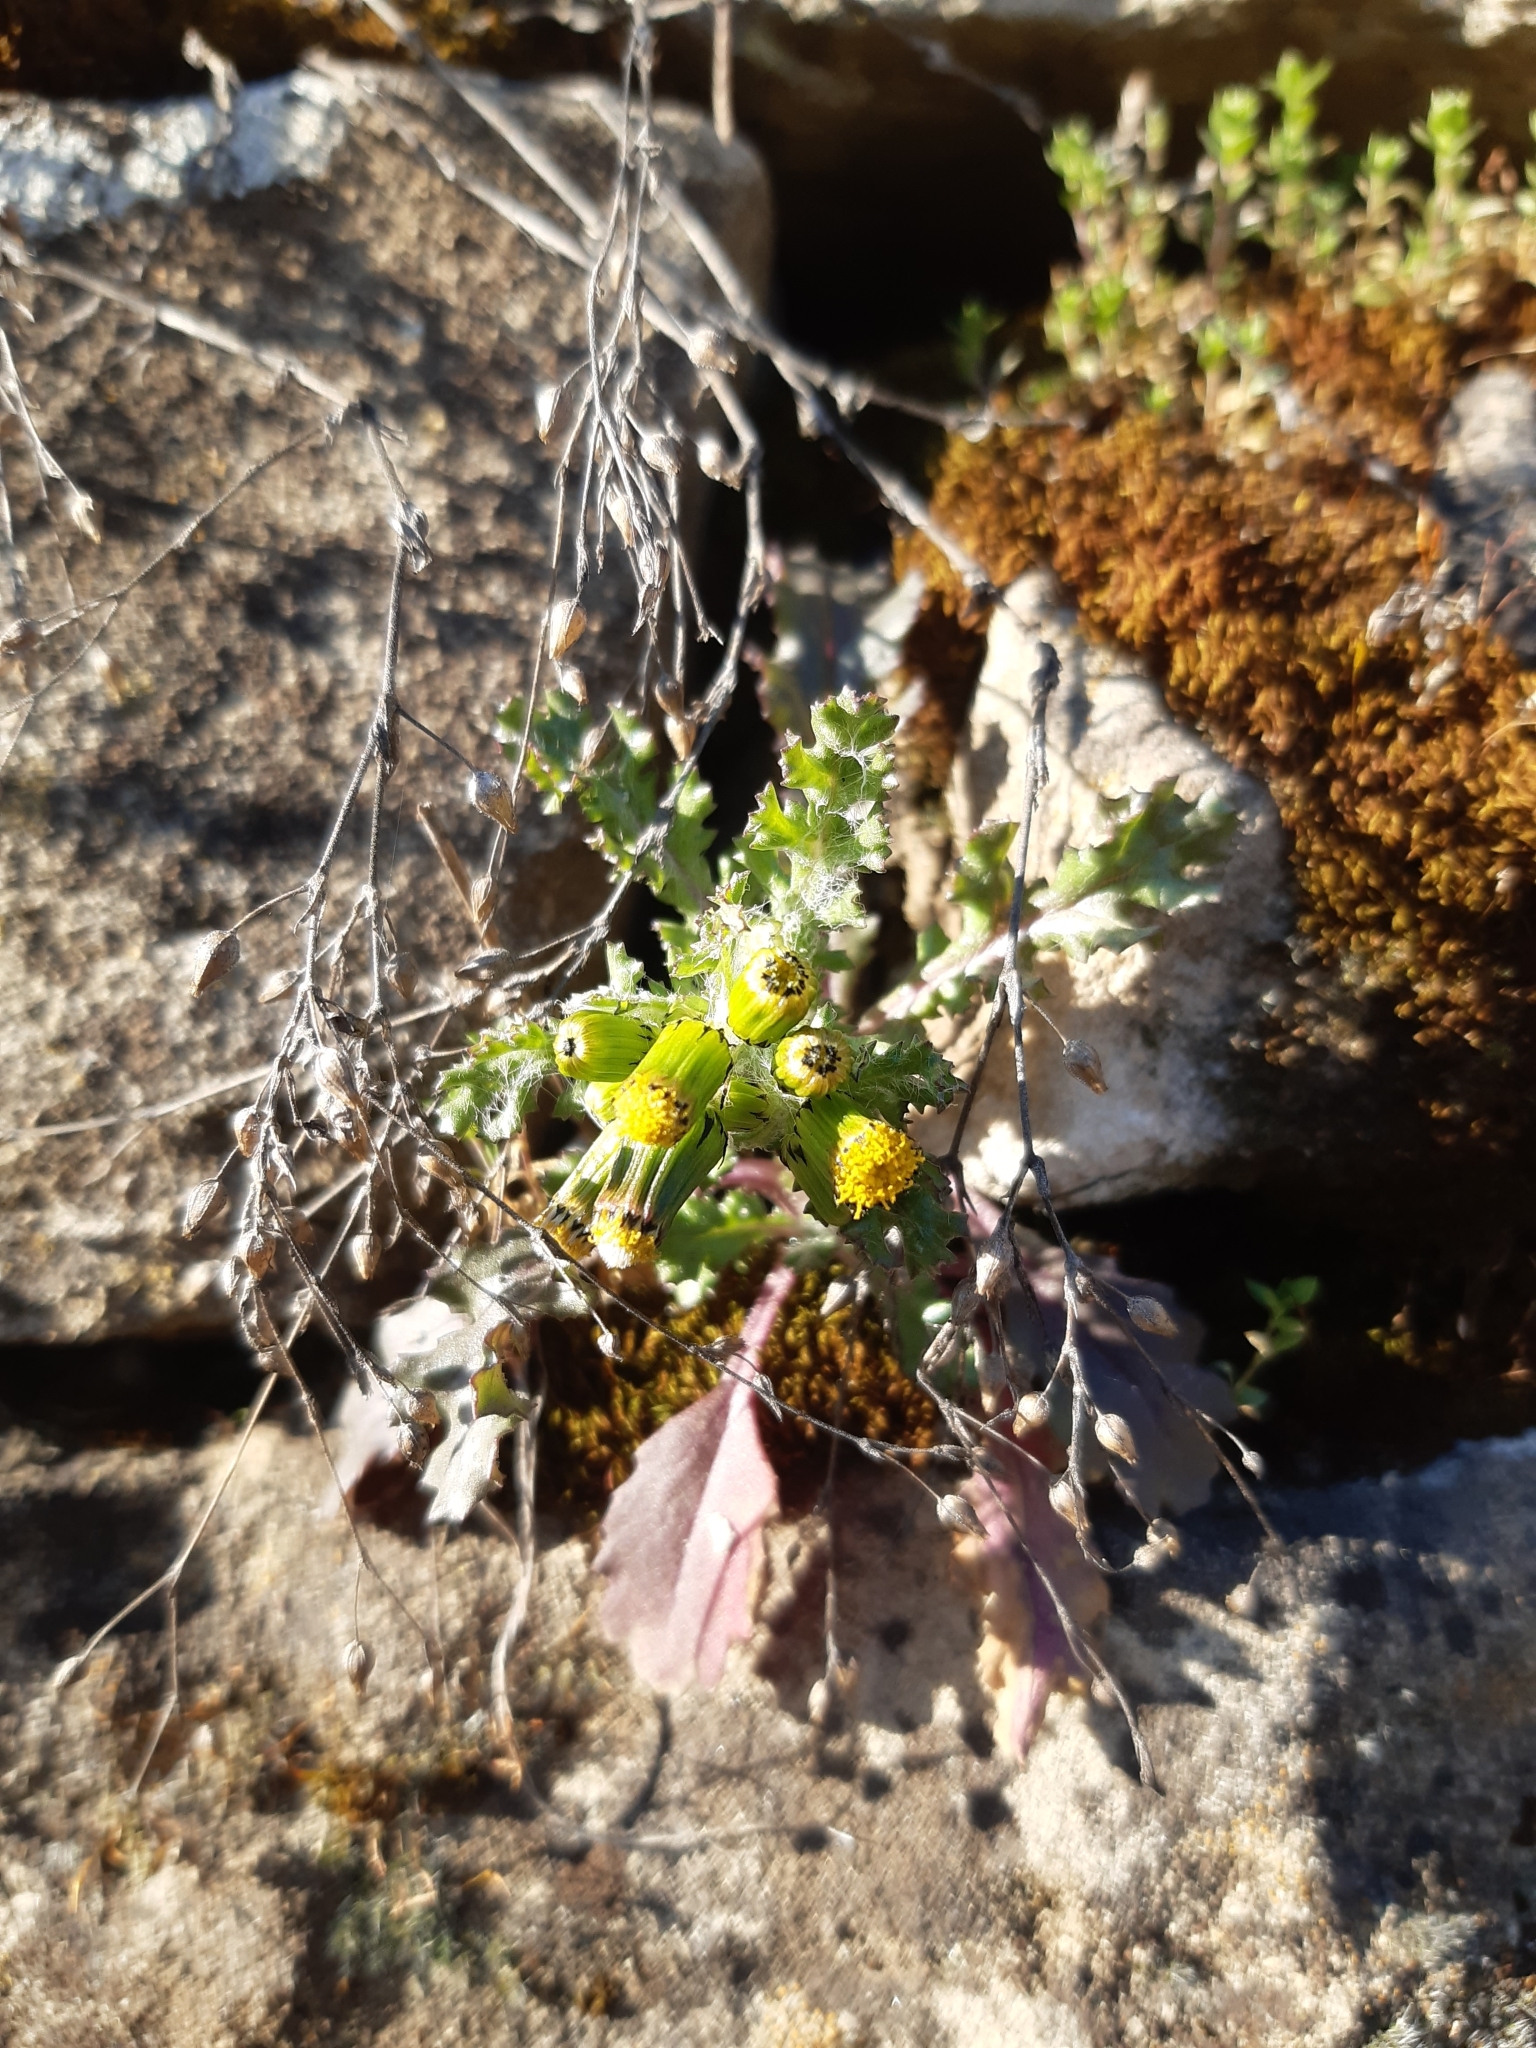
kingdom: Plantae
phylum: Tracheophyta
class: Magnoliopsida
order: Asterales
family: Asteraceae
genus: Senecio
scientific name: Senecio vulgaris
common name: Old-man-in-the-spring
